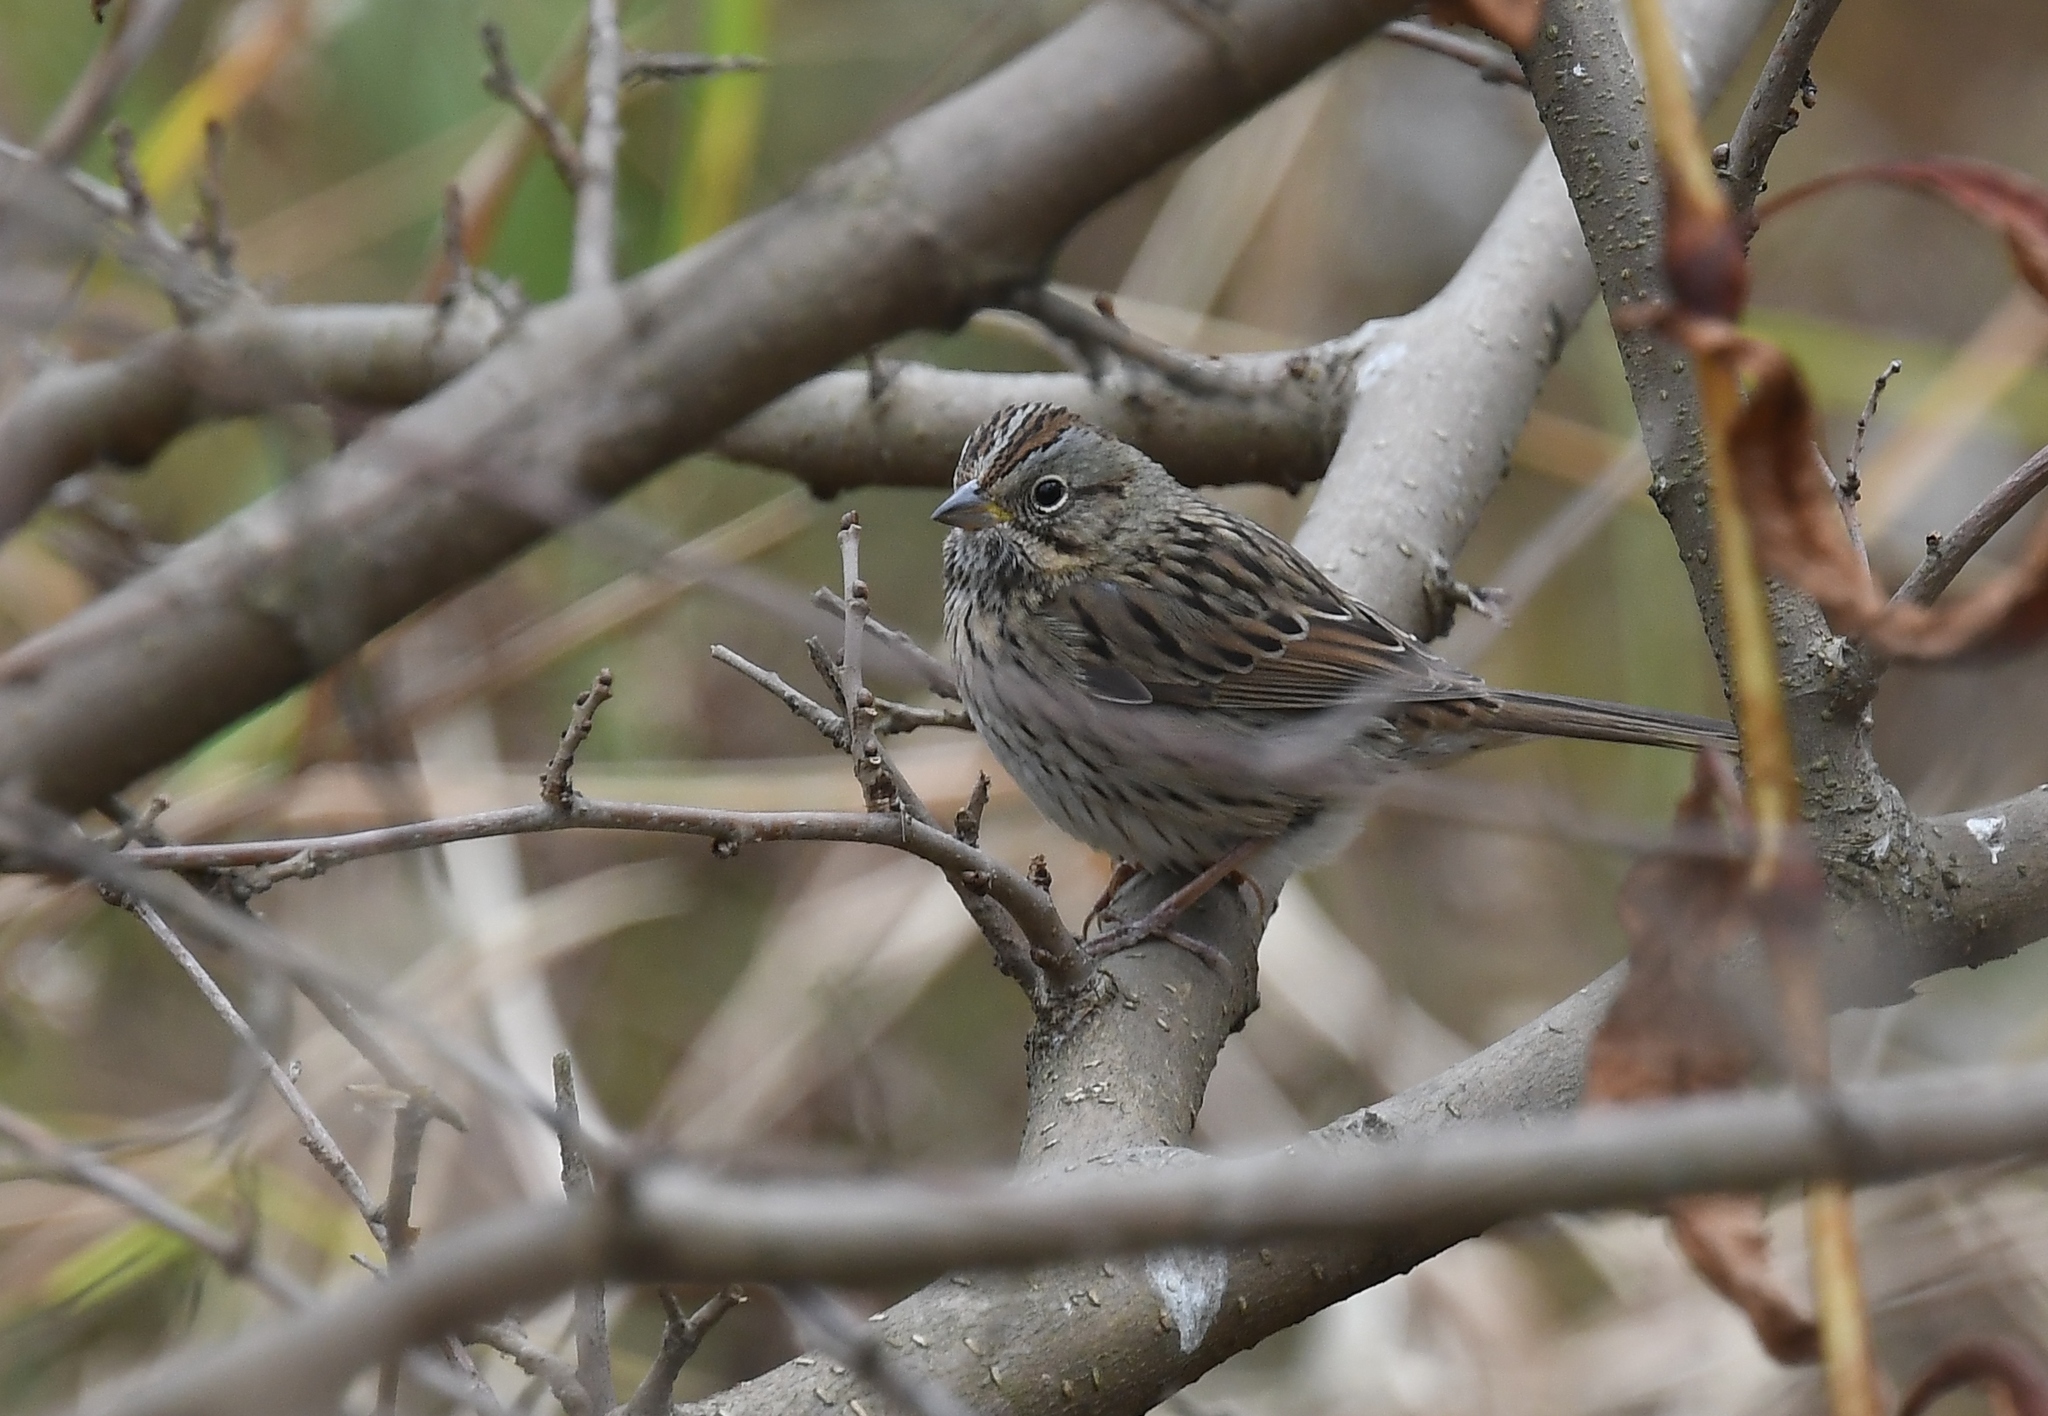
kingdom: Animalia
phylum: Chordata
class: Aves
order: Passeriformes
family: Passerellidae
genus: Melospiza
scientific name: Melospiza lincolnii
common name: Lincoln's sparrow
